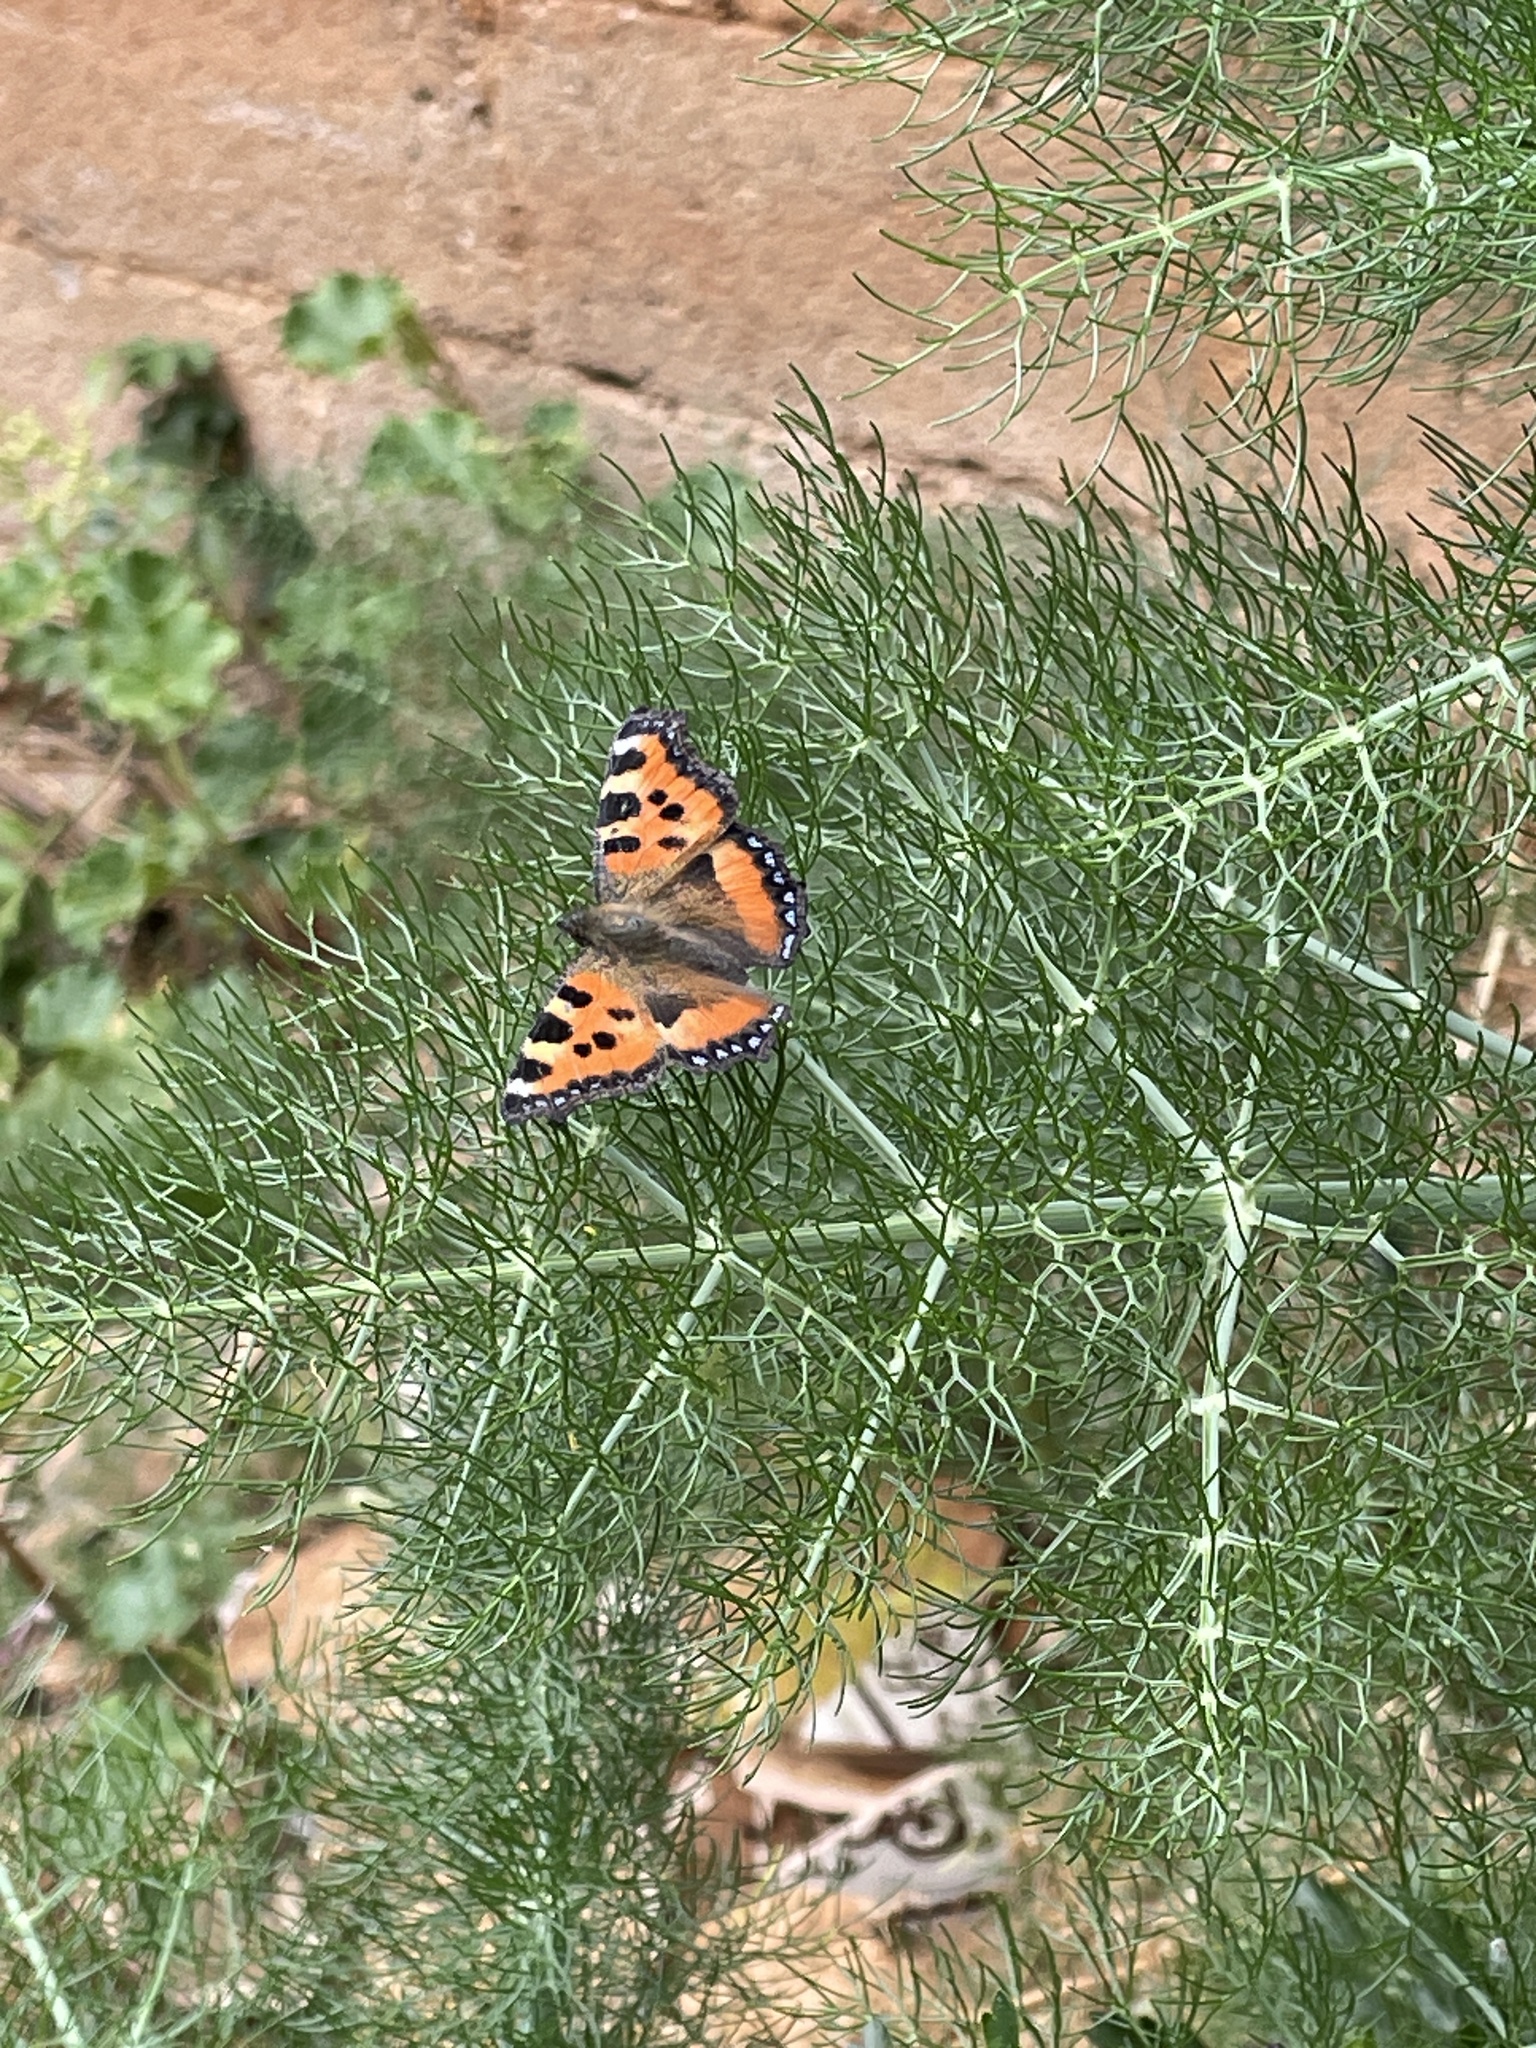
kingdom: Animalia
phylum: Arthropoda
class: Insecta
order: Lepidoptera
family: Nymphalidae
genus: Aglais
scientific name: Aglais urticae
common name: Small tortoiseshell
